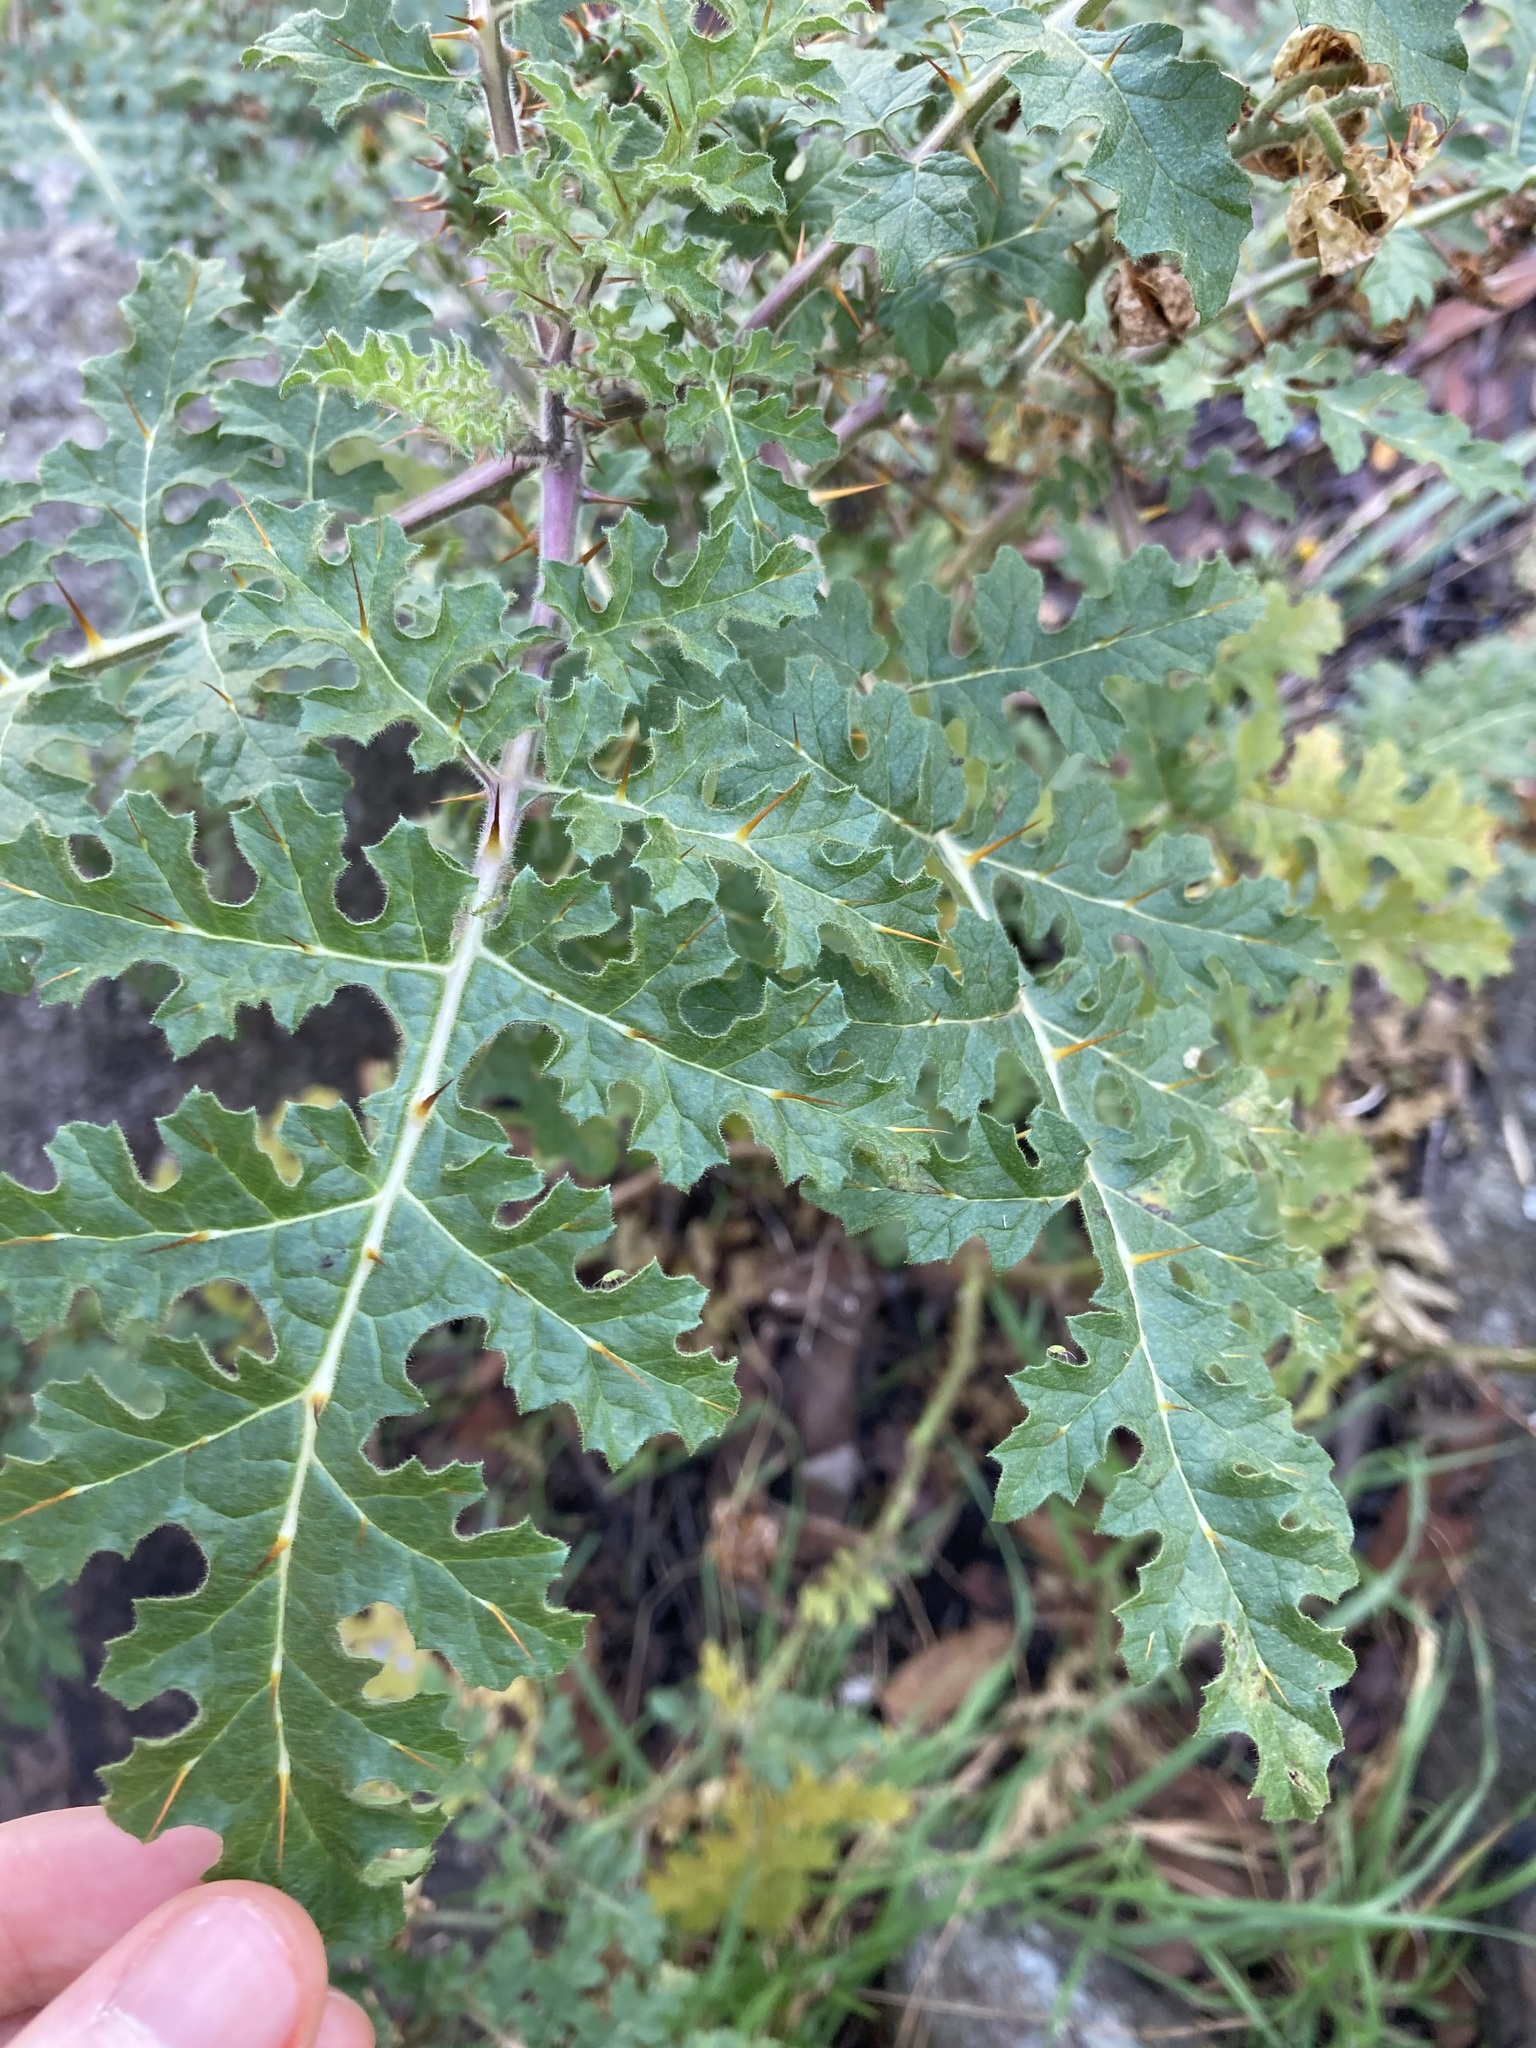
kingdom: Plantae
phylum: Tracheophyta
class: Magnoliopsida
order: Solanales
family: Solanaceae
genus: Solanum
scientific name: Solanum sisymbriifolium
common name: Red buffalo-bur
